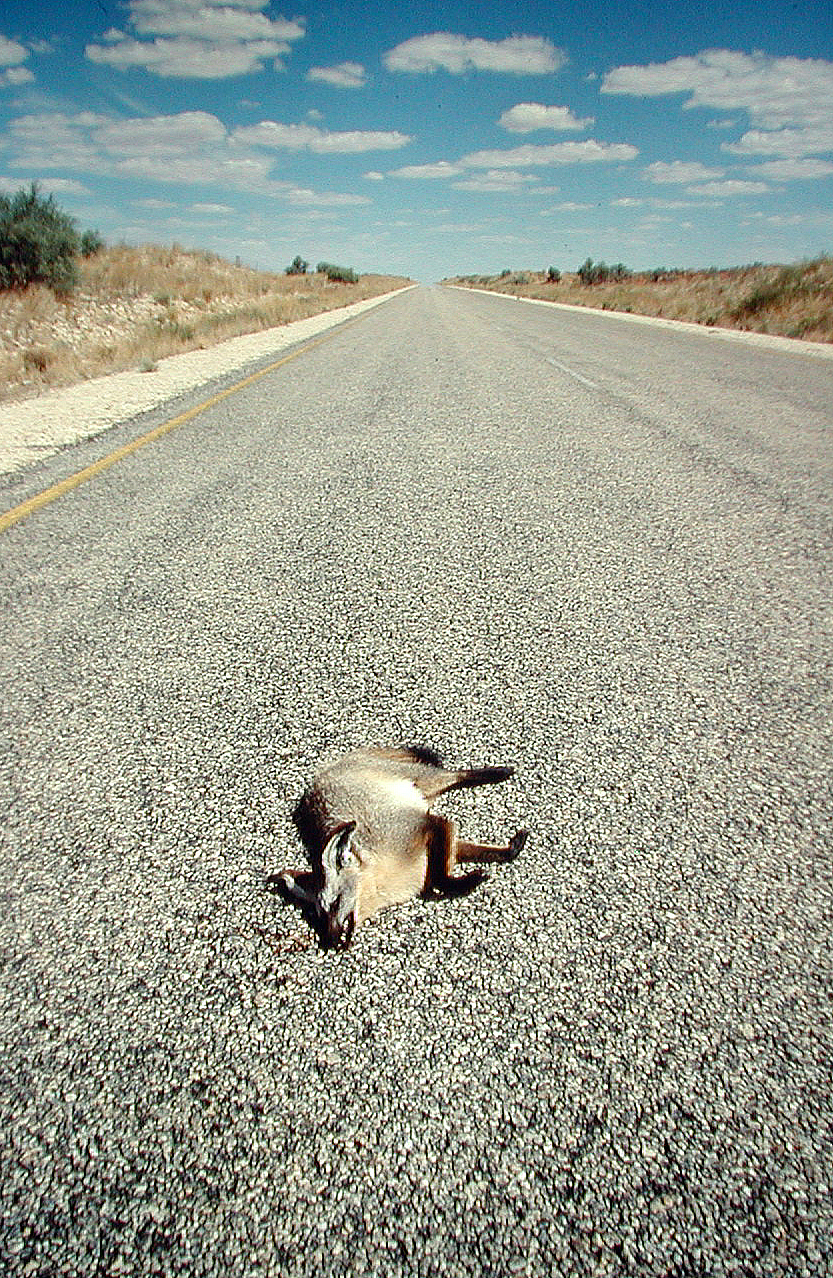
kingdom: Animalia
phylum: Chordata
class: Mammalia
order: Carnivora
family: Canidae
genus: Otocyon
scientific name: Otocyon megalotis
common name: Bat-eared fox
